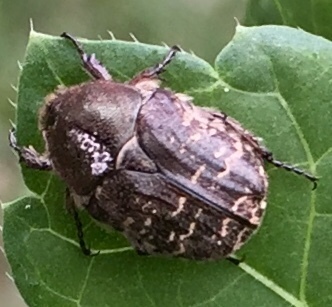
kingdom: Animalia
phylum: Arthropoda
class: Insecta
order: Coleoptera
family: Scarabaeidae
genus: Euphoria
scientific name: Euphoria sepulcralis
